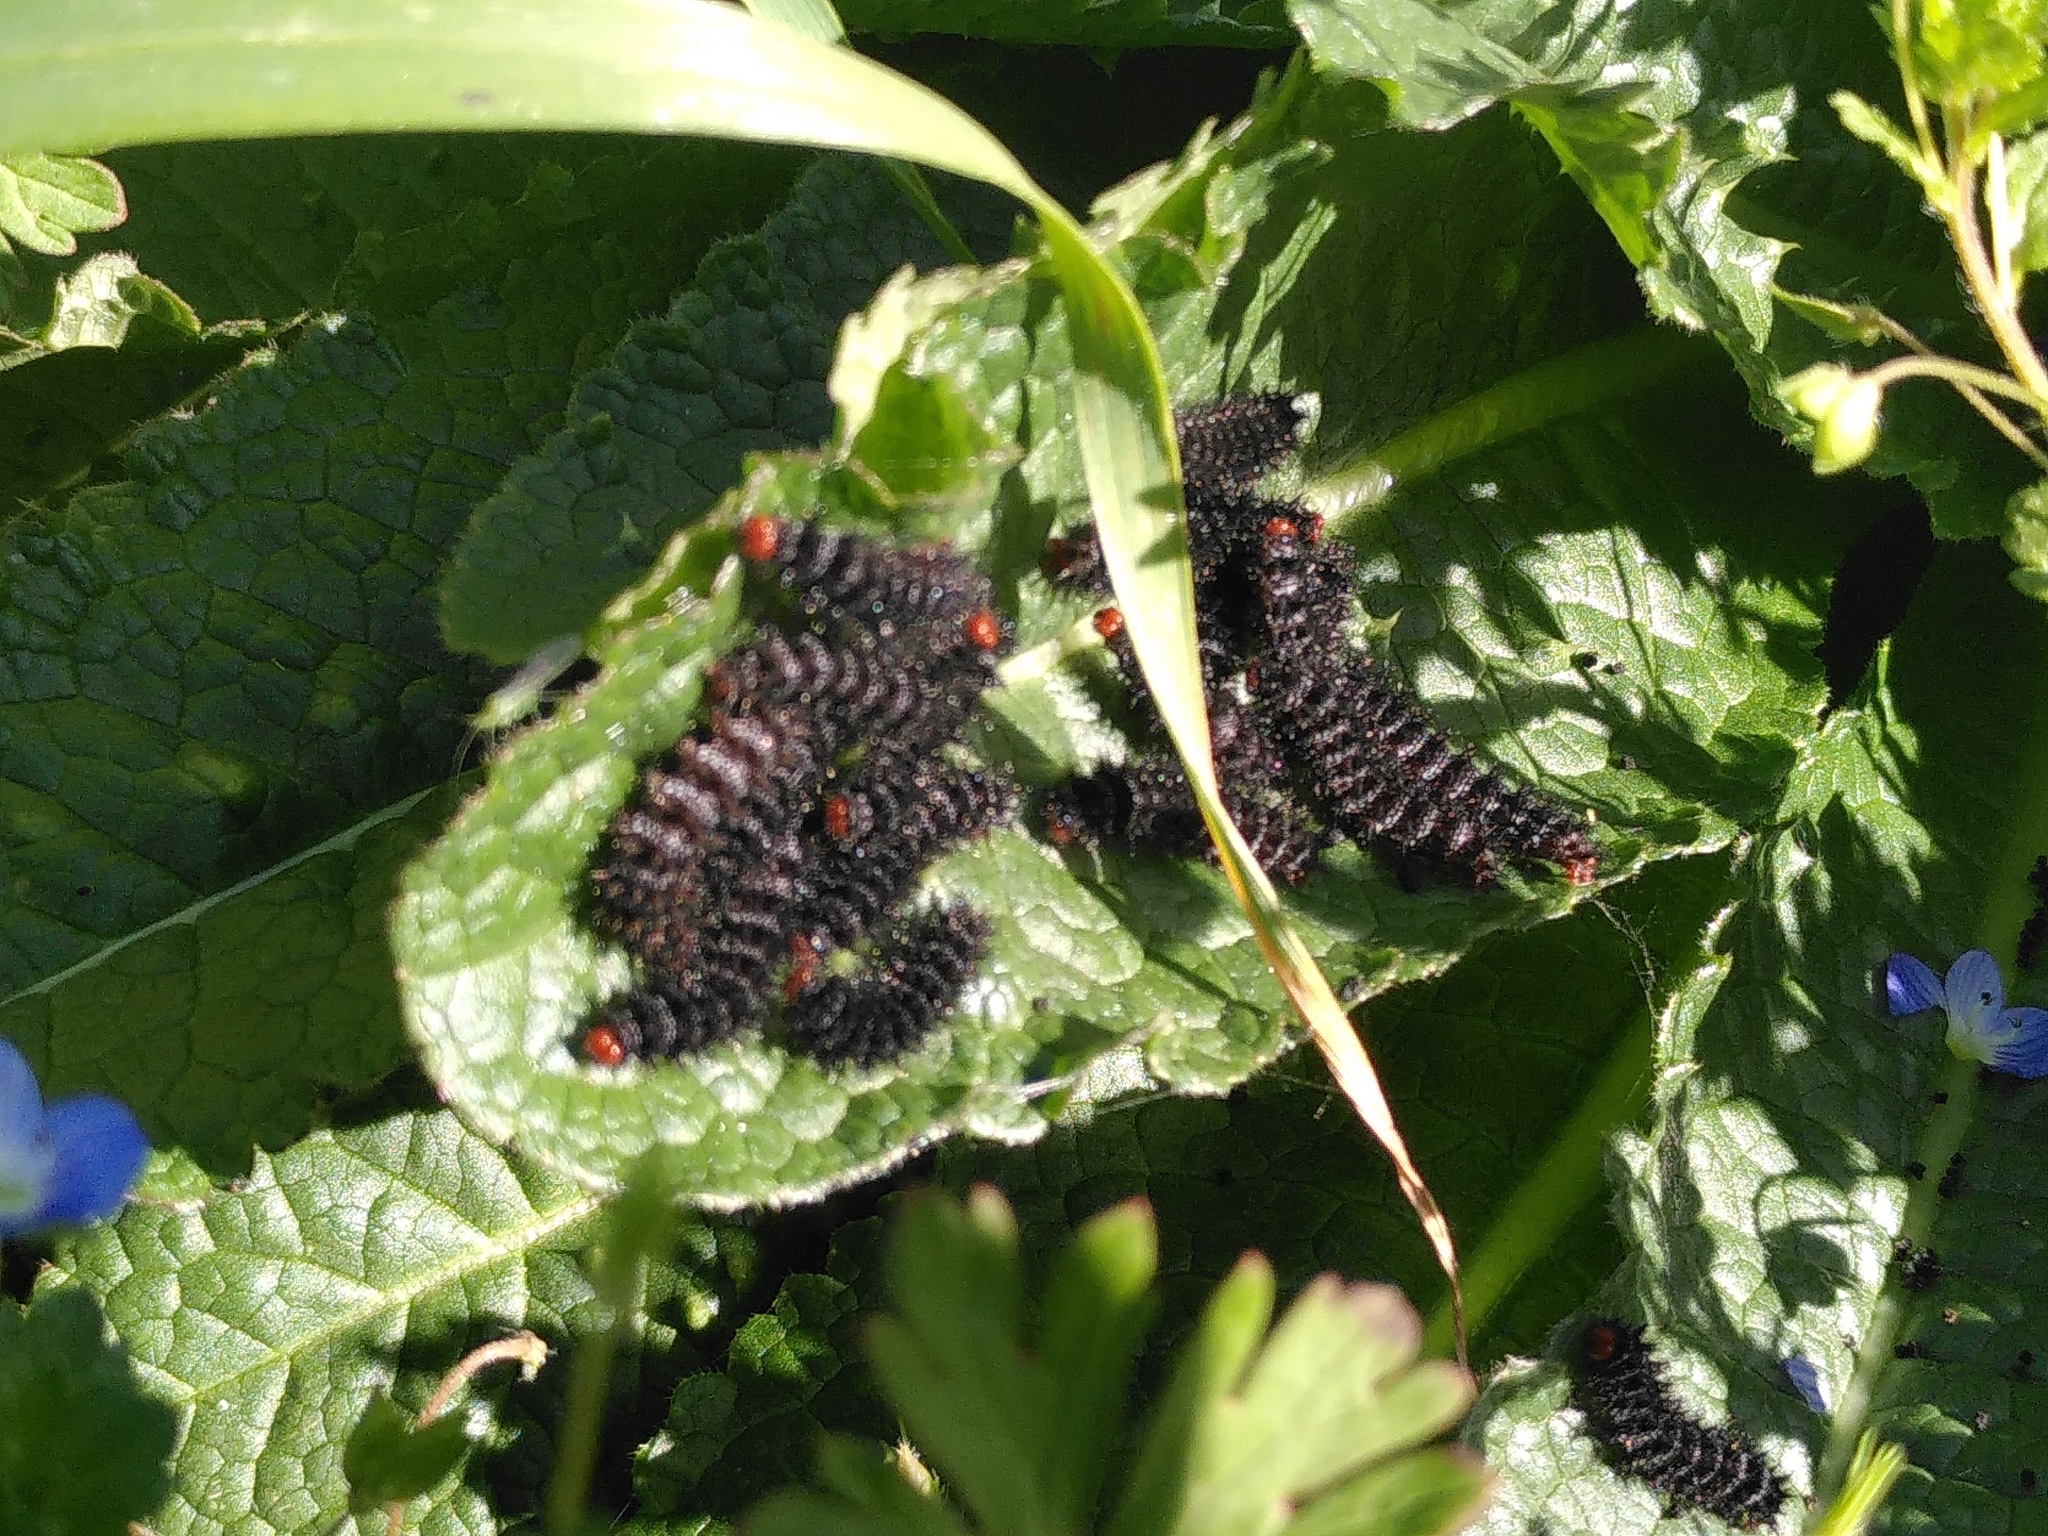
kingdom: Animalia
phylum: Arthropoda
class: Insecta
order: Lepidoptera
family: Nymphalidae
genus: Melitaea
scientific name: Melitaea cinxia
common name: Glanville fritillary
